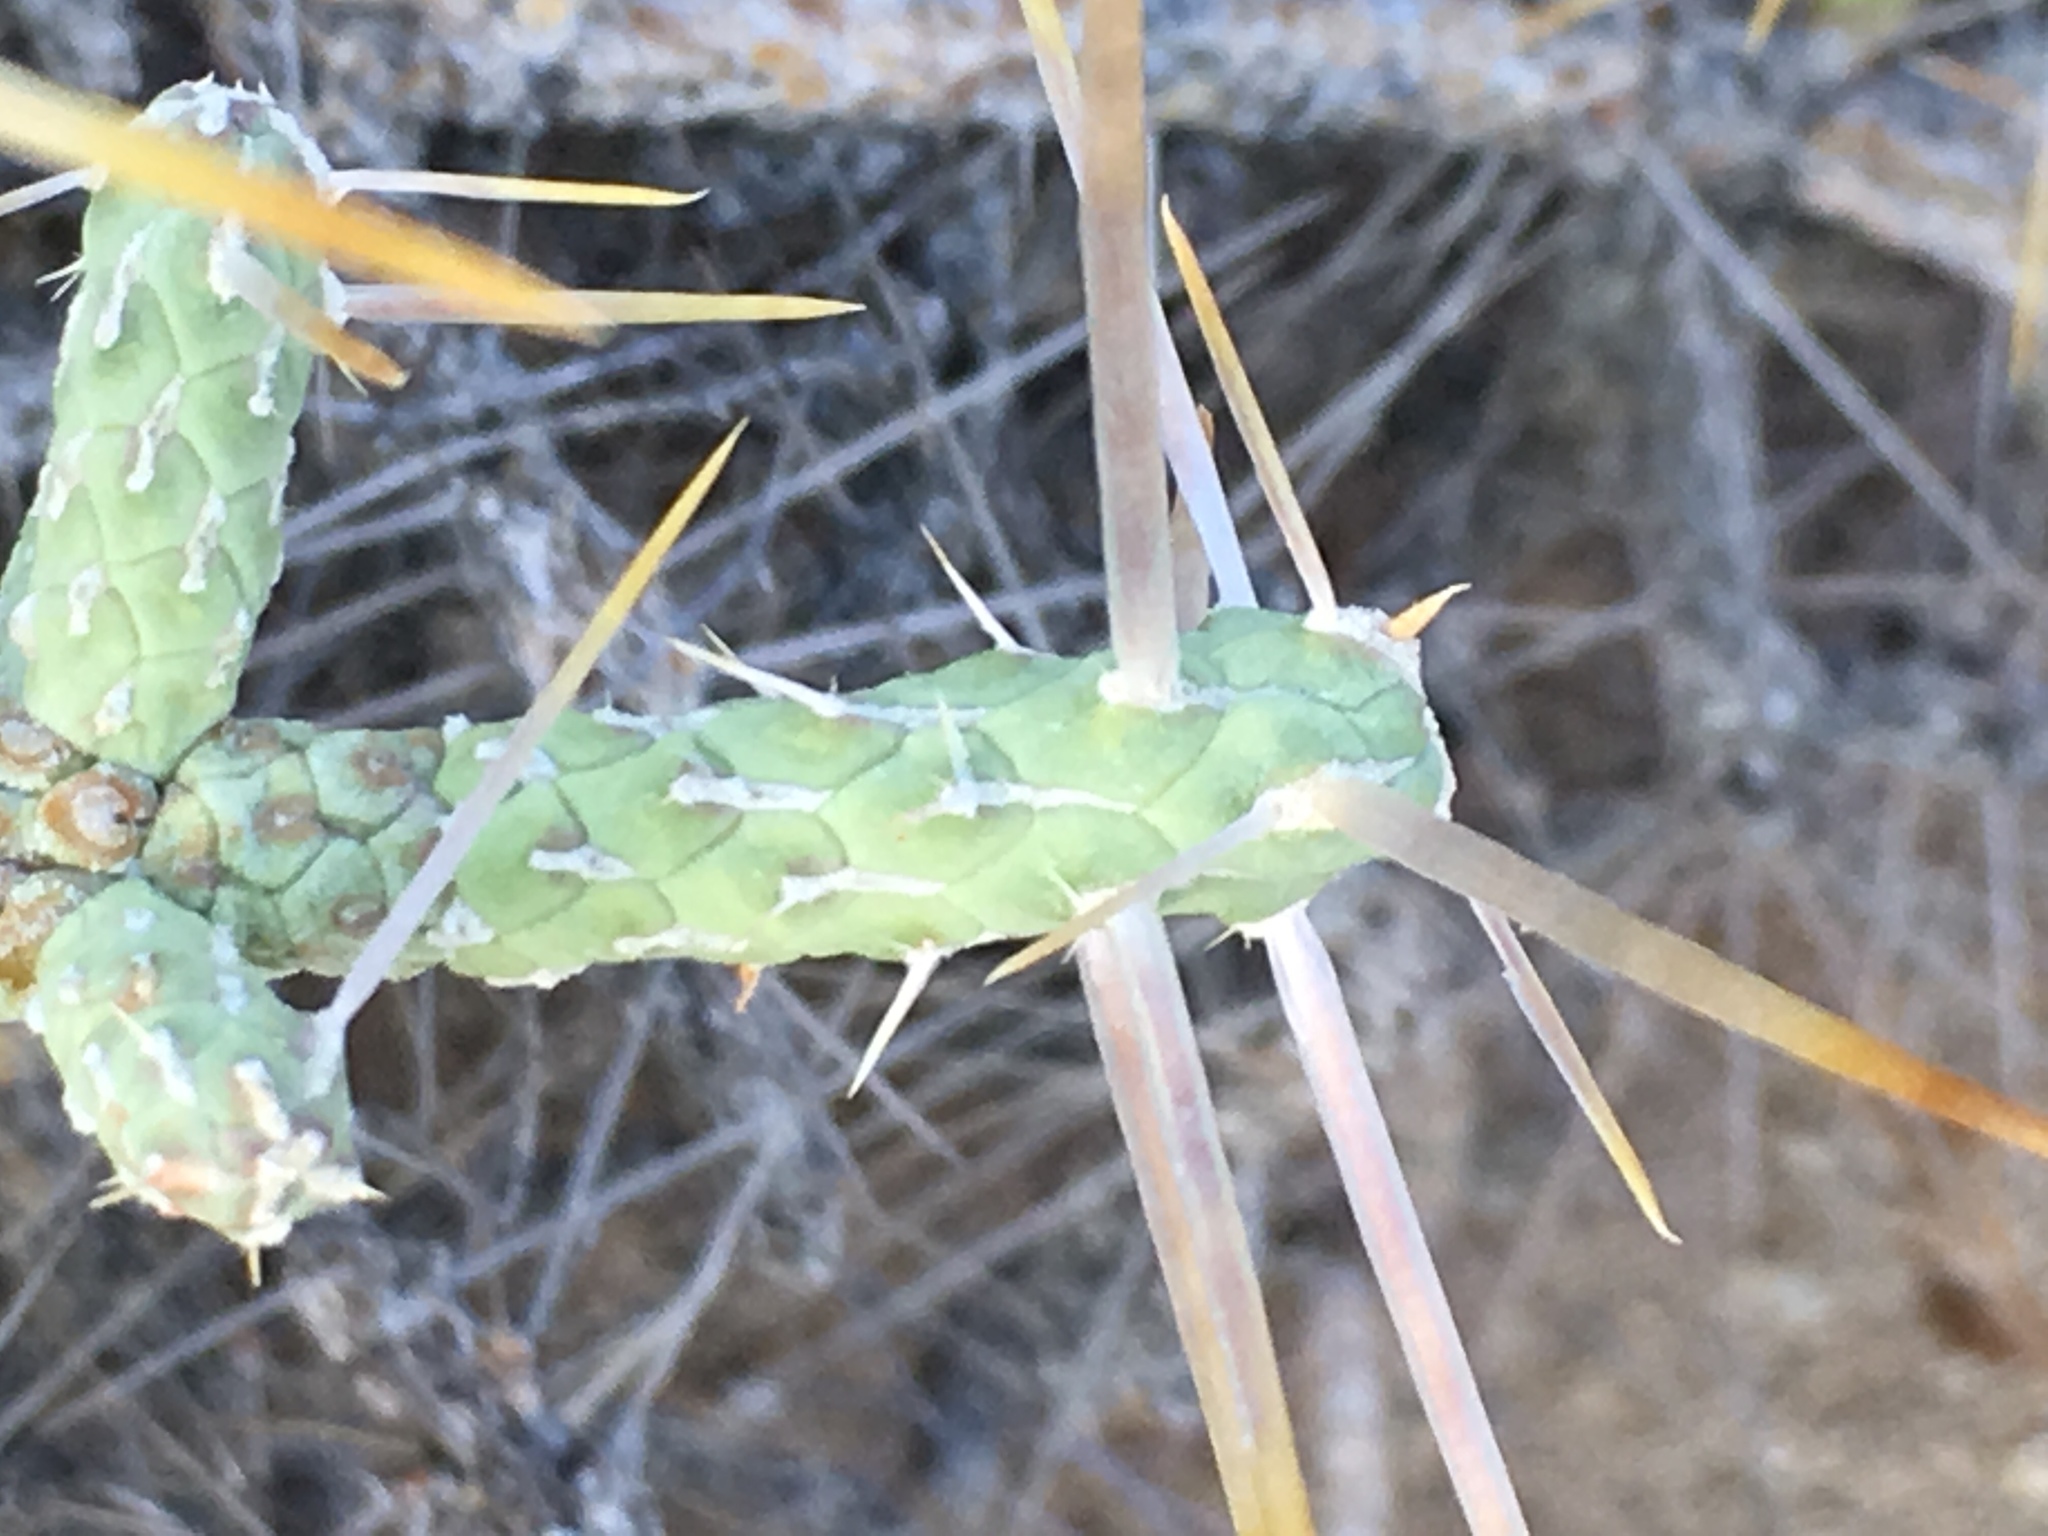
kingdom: Plantae
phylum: Tracheophyta
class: Magnoliopsida
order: Caryophyllales
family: Cactaceae
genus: Cylindropuntia
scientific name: Cylindropuntia ramosissima
